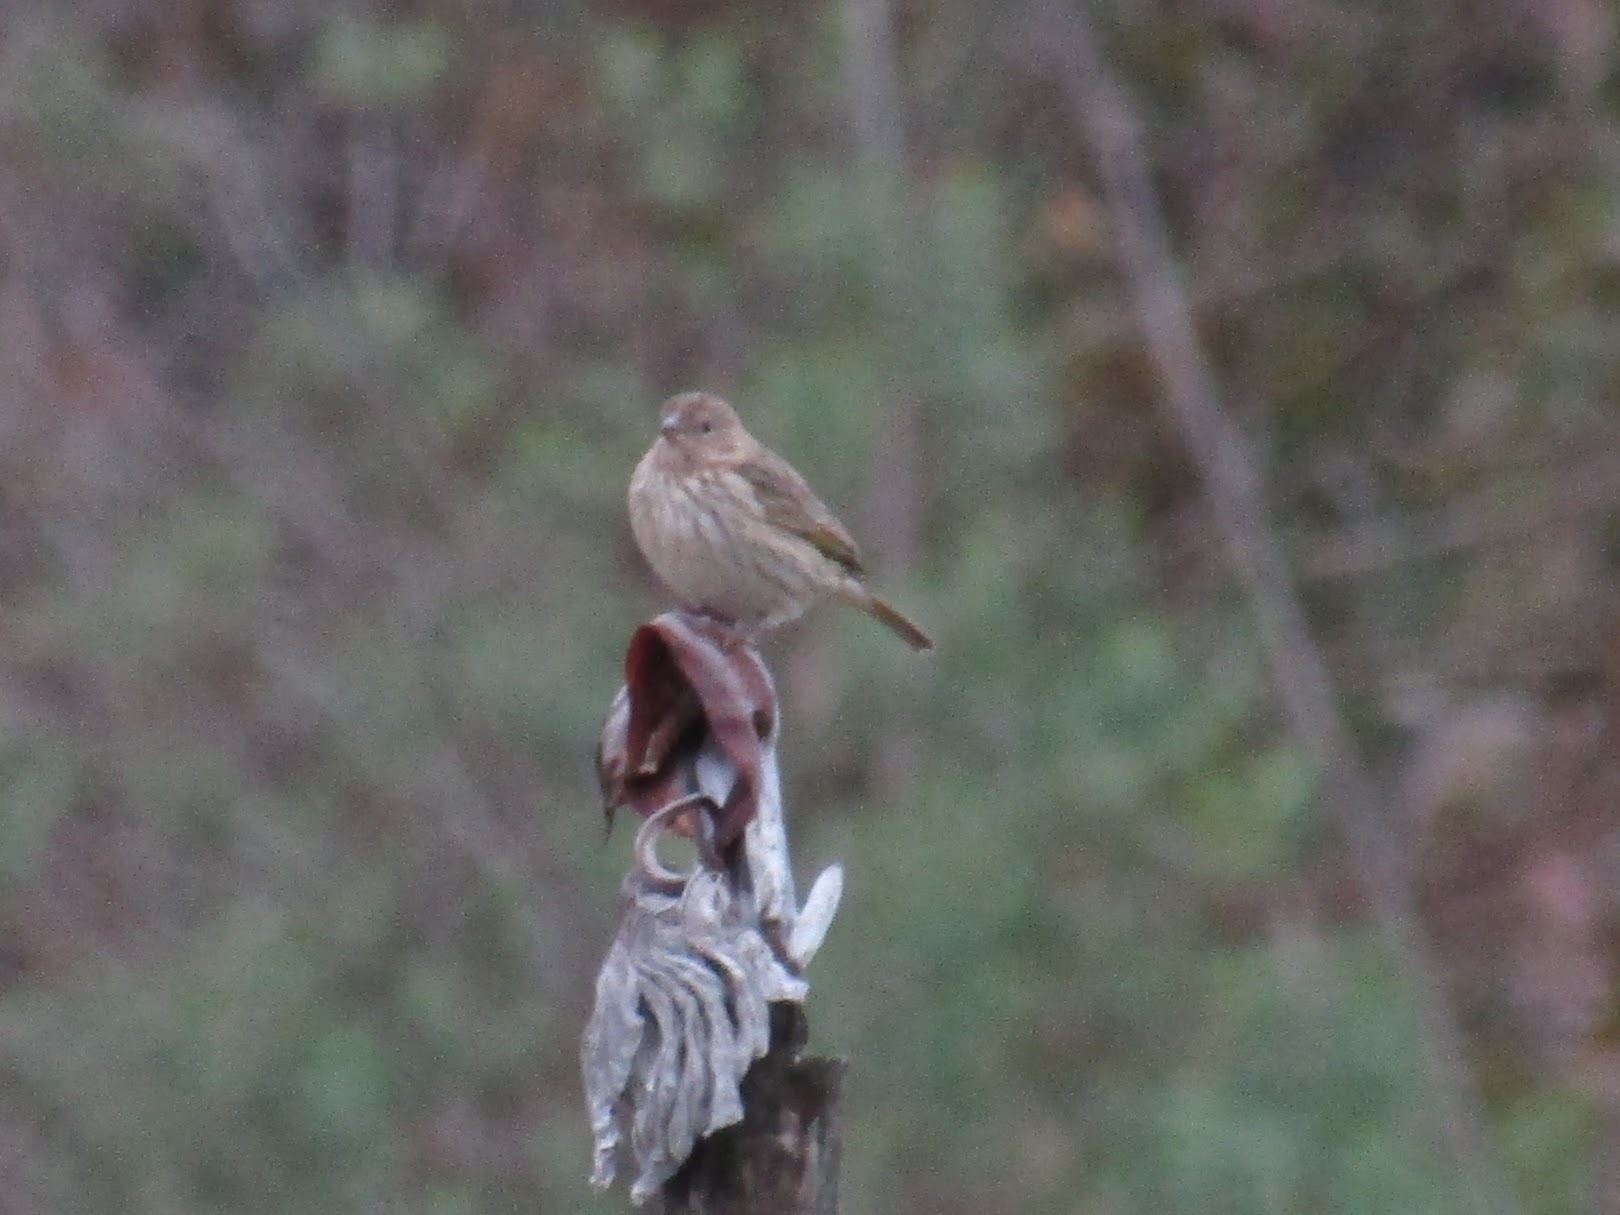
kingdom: Animalia
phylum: Chordata
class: Aves
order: Passeriformes
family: Thraupidae
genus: Sicalis
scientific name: Sicalis flaveola
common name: Saffron finch
